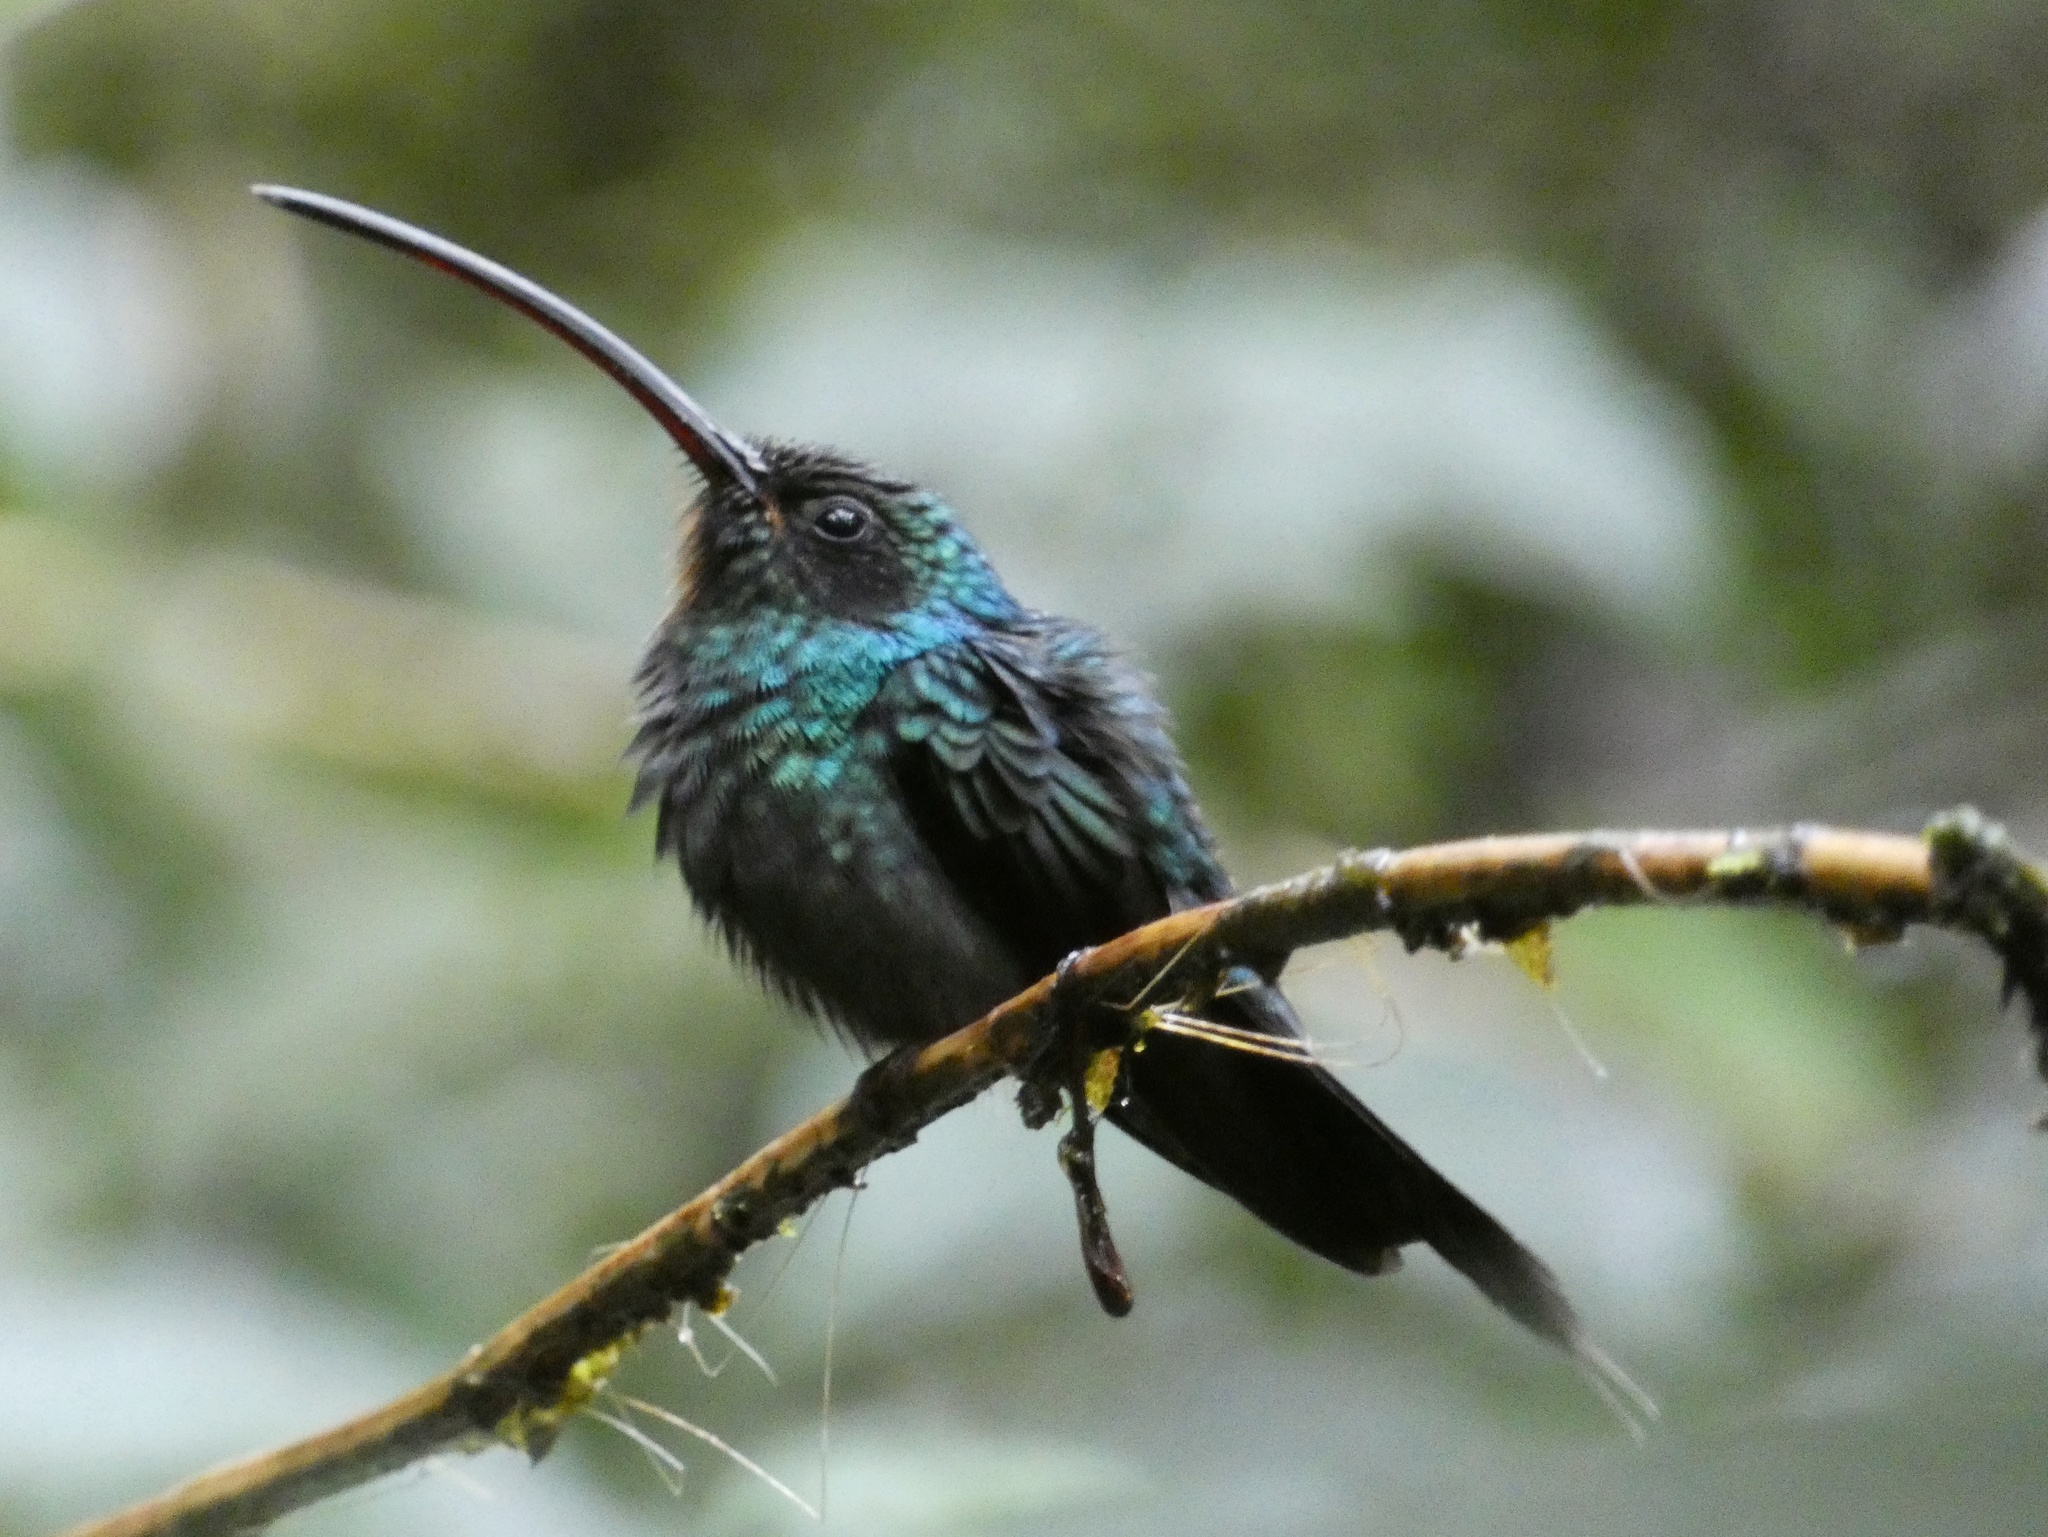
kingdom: Animalia
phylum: Chordata
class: Aves
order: Apodiformes
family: Trochilidae
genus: Phaethornis
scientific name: Phaethornis guy
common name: Green hermit
